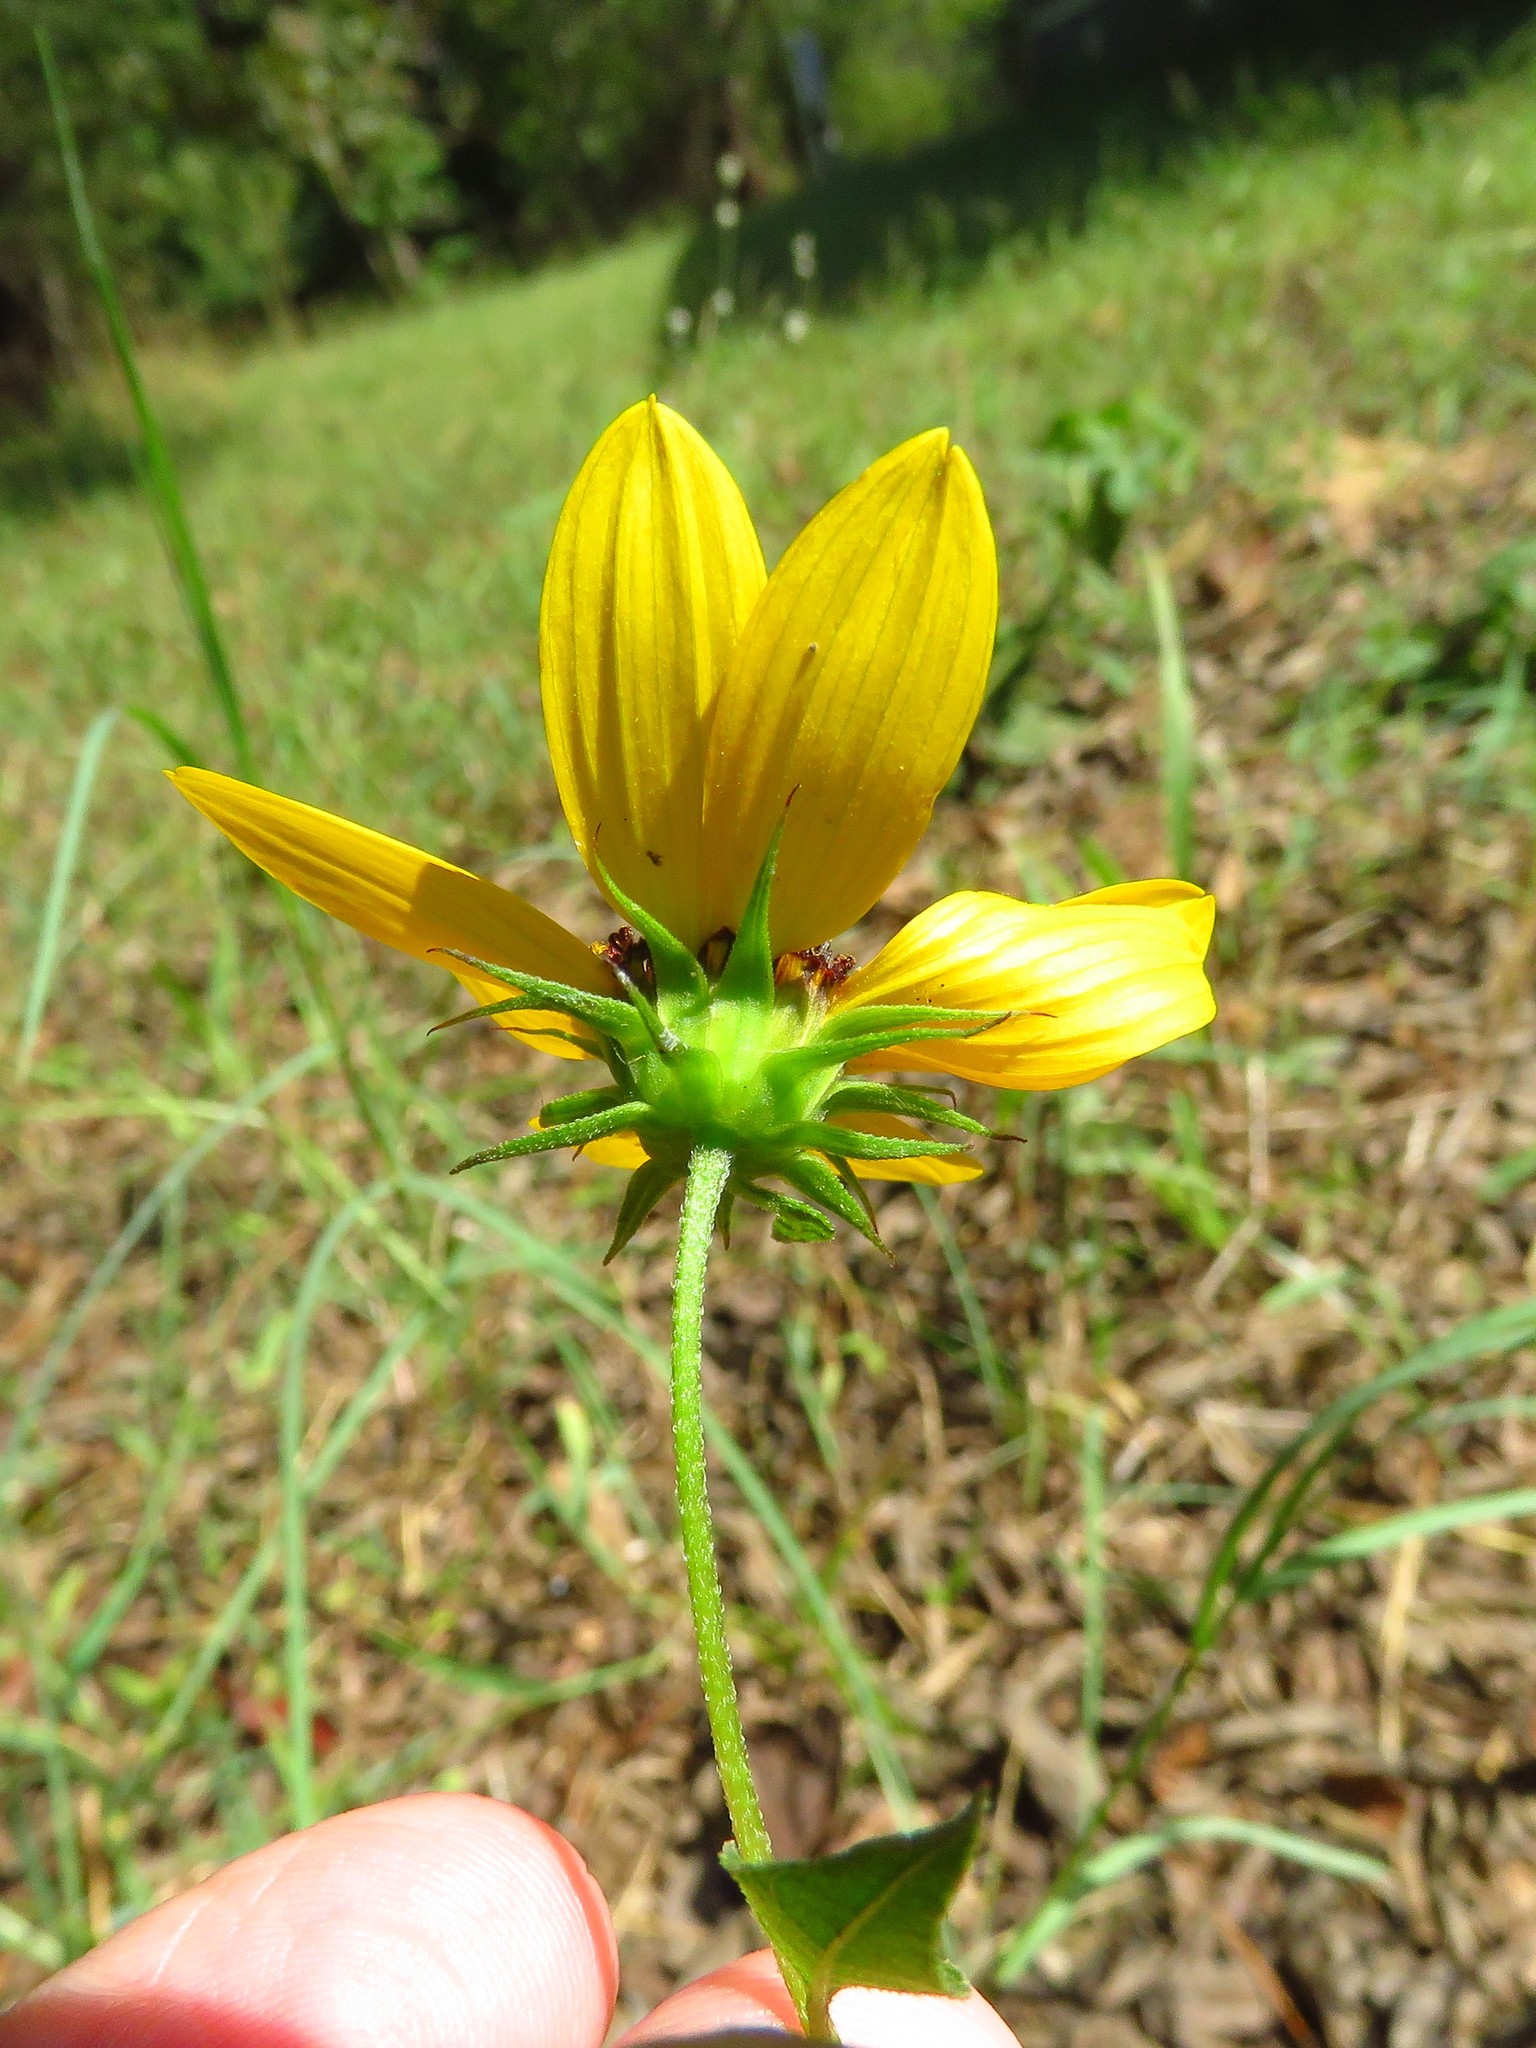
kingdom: Plantae
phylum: Tracheophyta
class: Magnoliopsida
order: Asterales
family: Asteraceae
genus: Helianthus
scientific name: Helianthus debilis
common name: Weak sunflower
